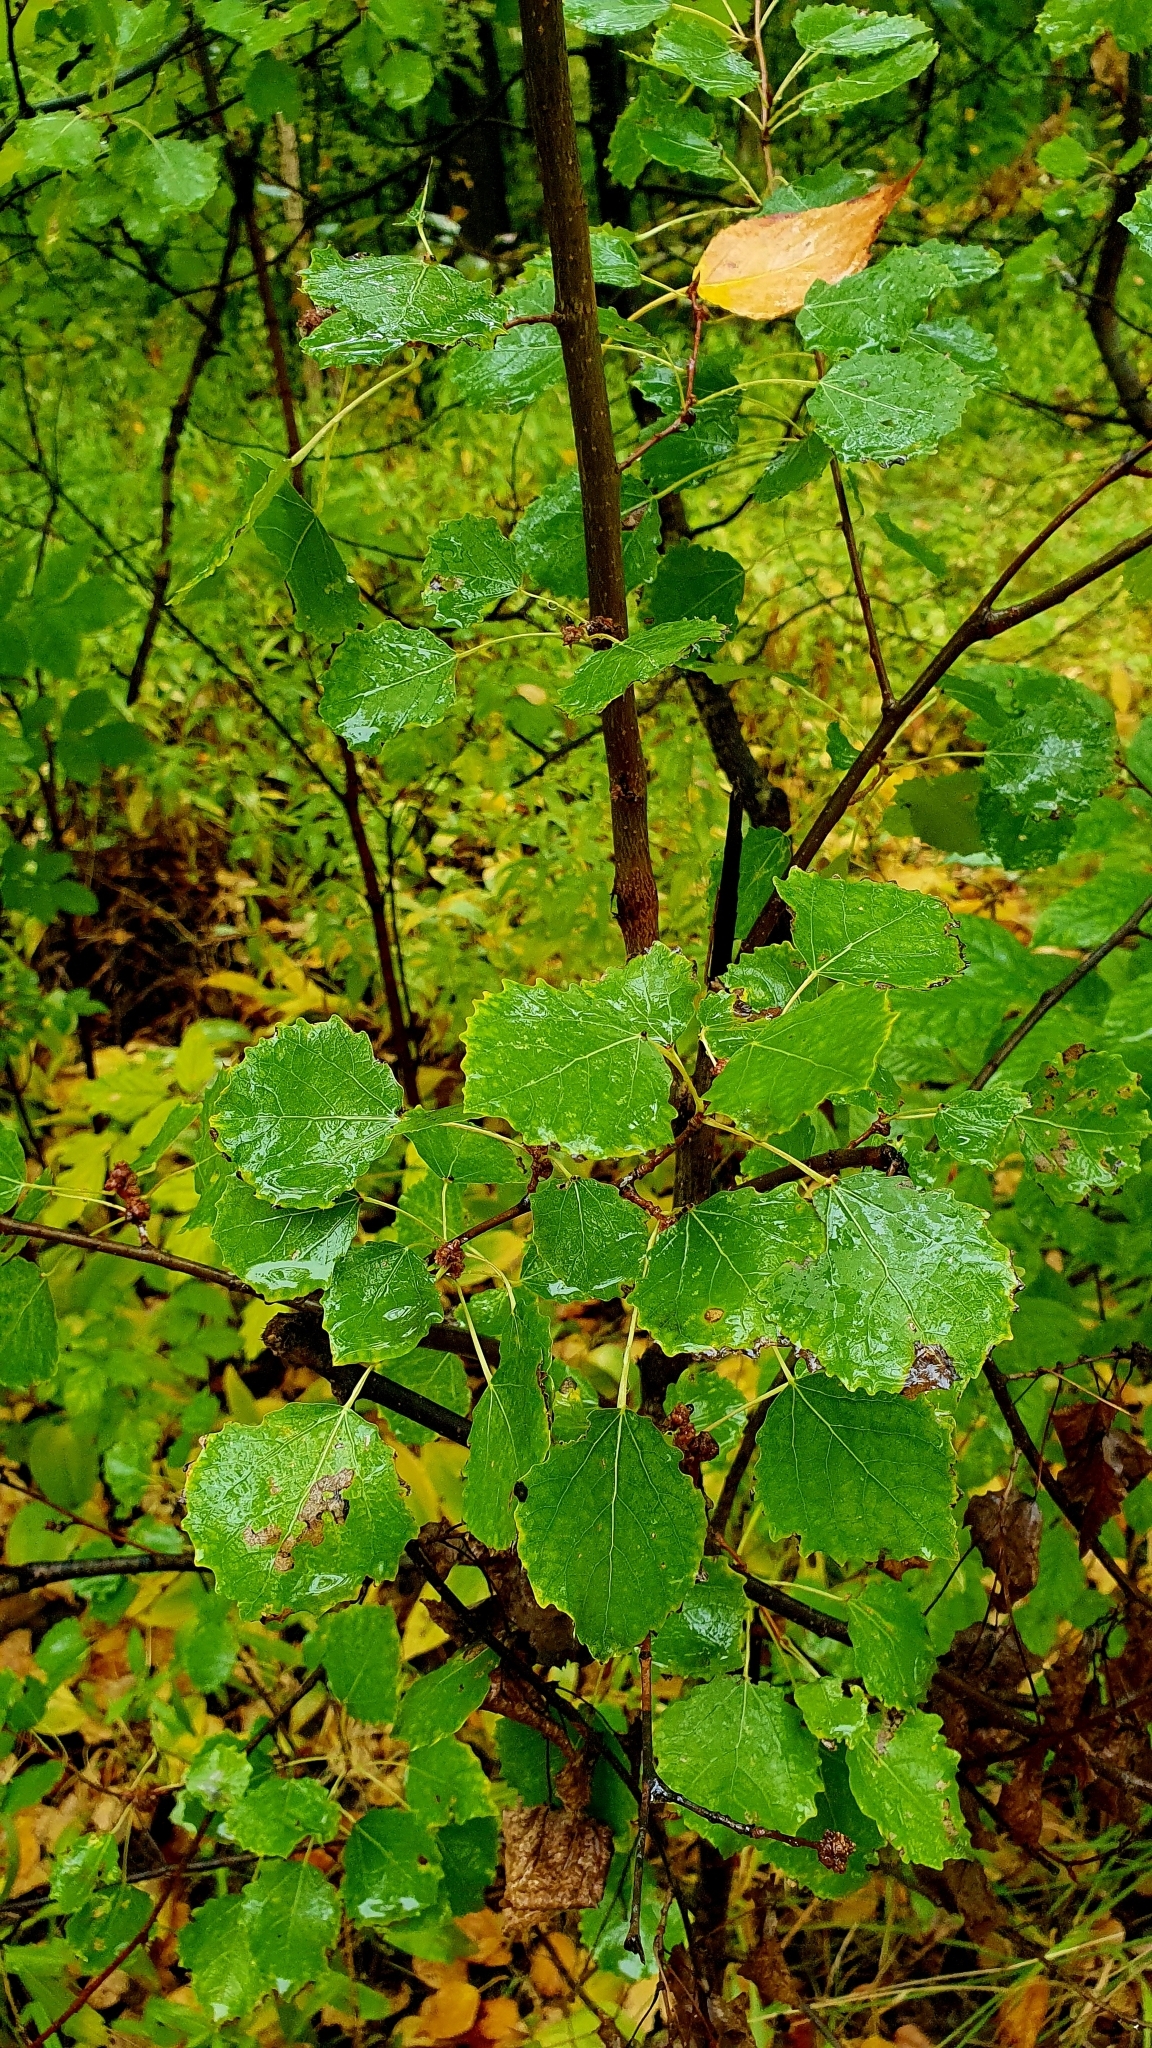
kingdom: Plantae
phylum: Tracheophyta
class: Magnoliopsida
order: Malpighiales
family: Salicaceae
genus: Populus
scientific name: Populus tremula
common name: European aspen
